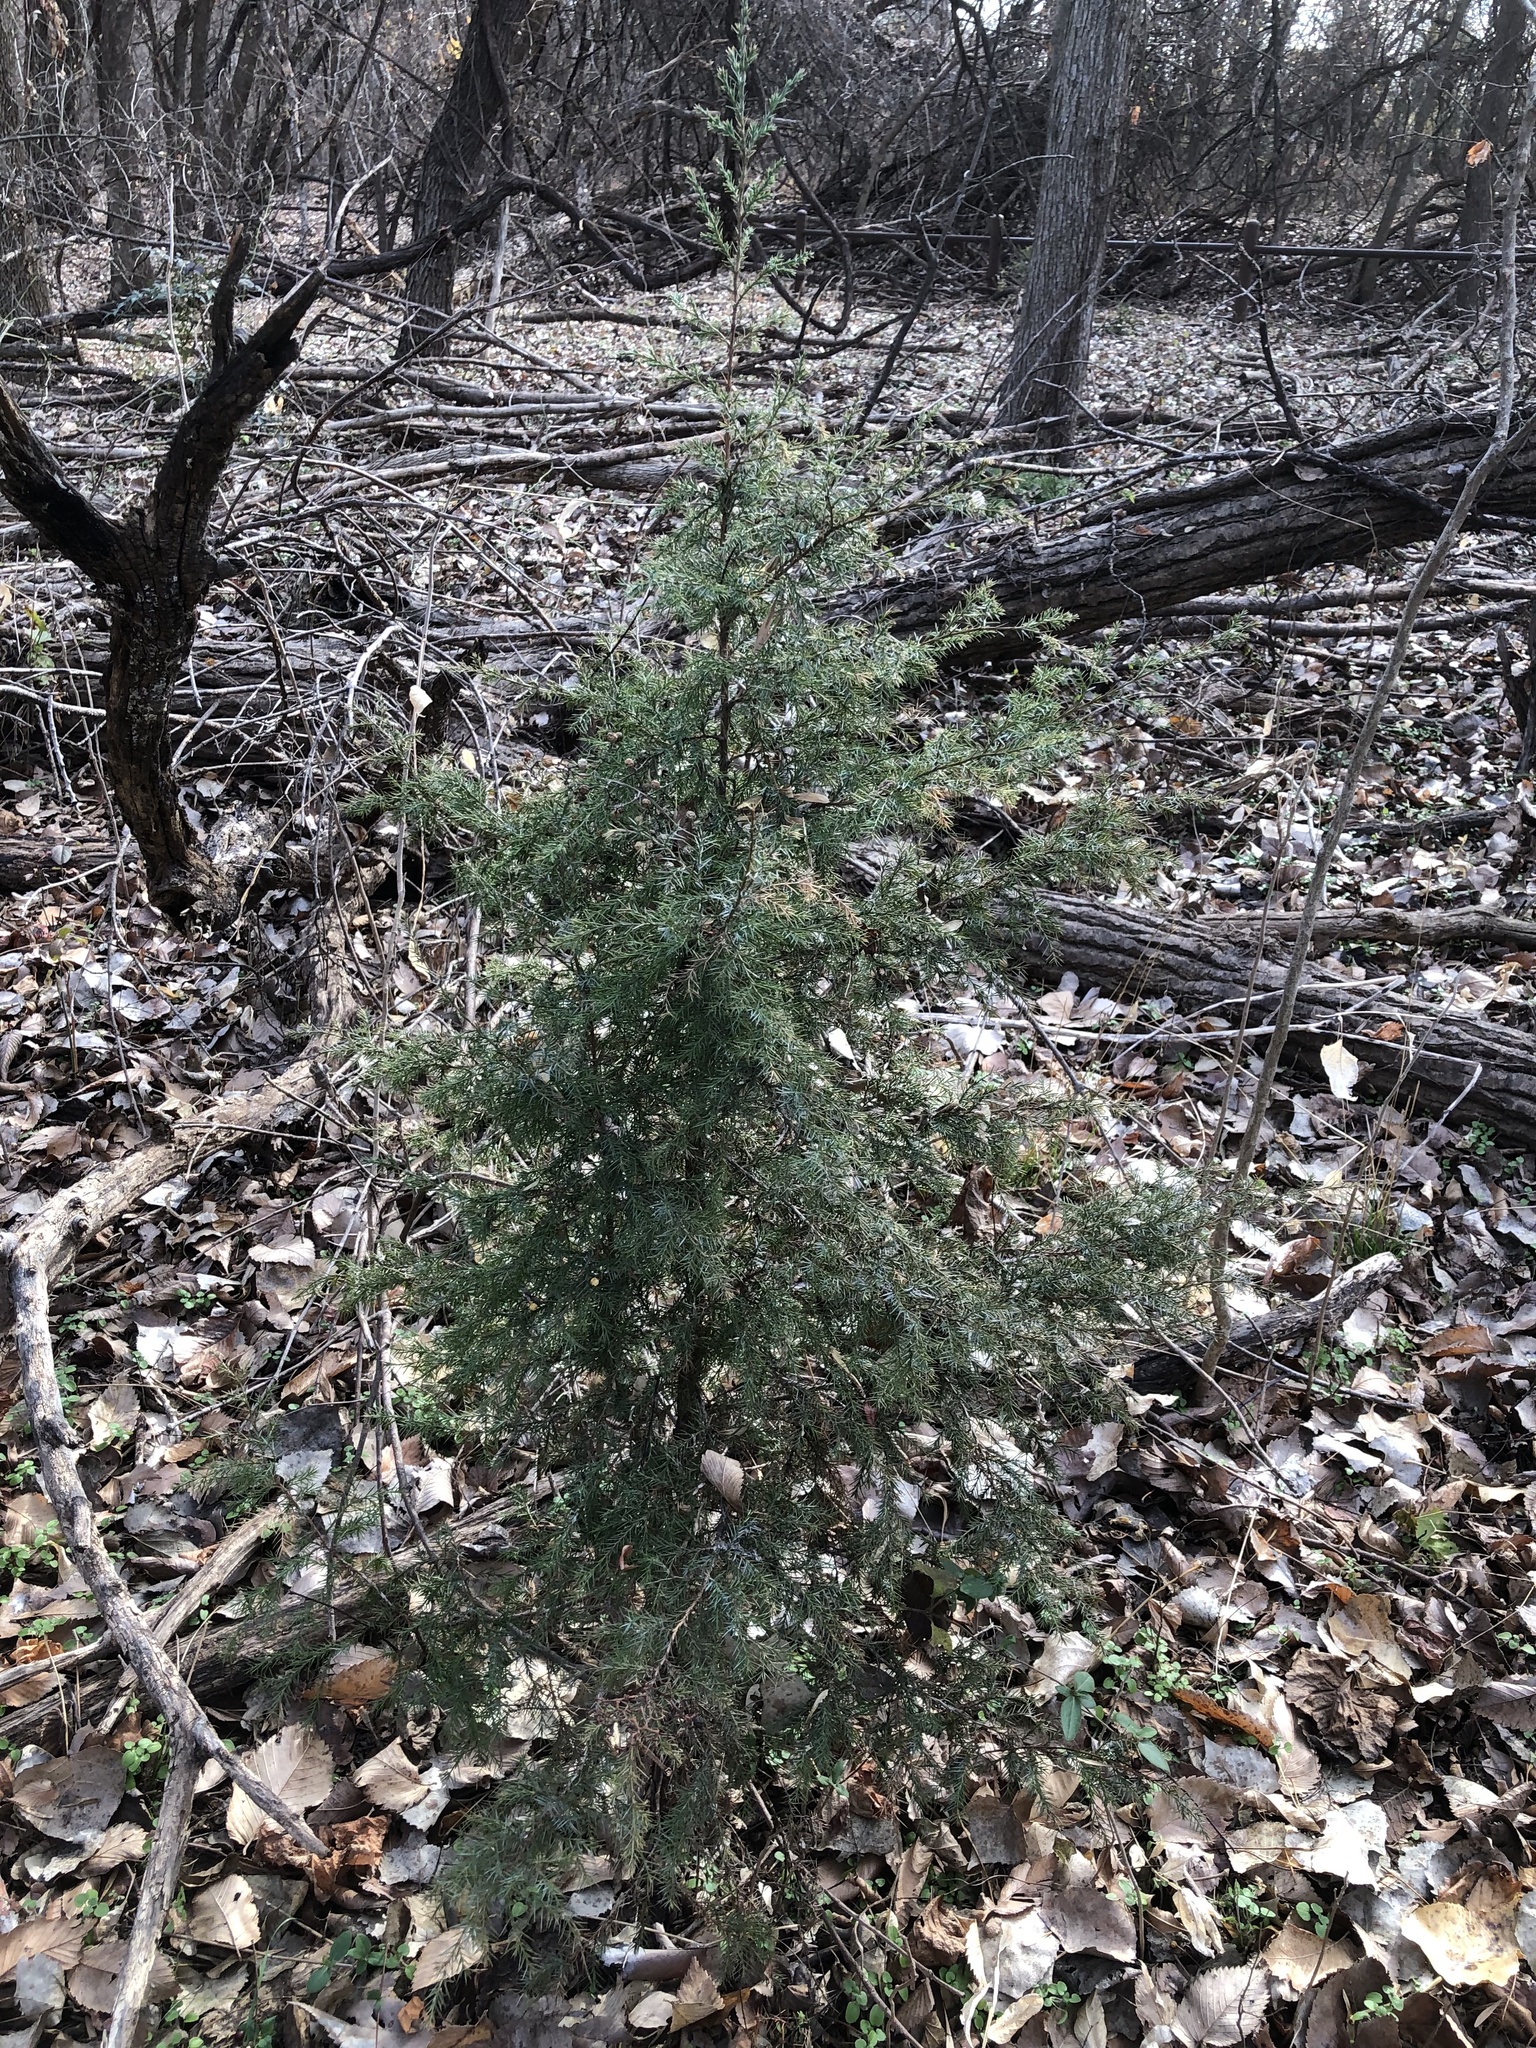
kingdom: Plantae
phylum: Tracheophyta
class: Pinopsida
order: Pinales
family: Cupressaceae
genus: Juniperus
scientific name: Juniperus virginiana
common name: Red juniper
